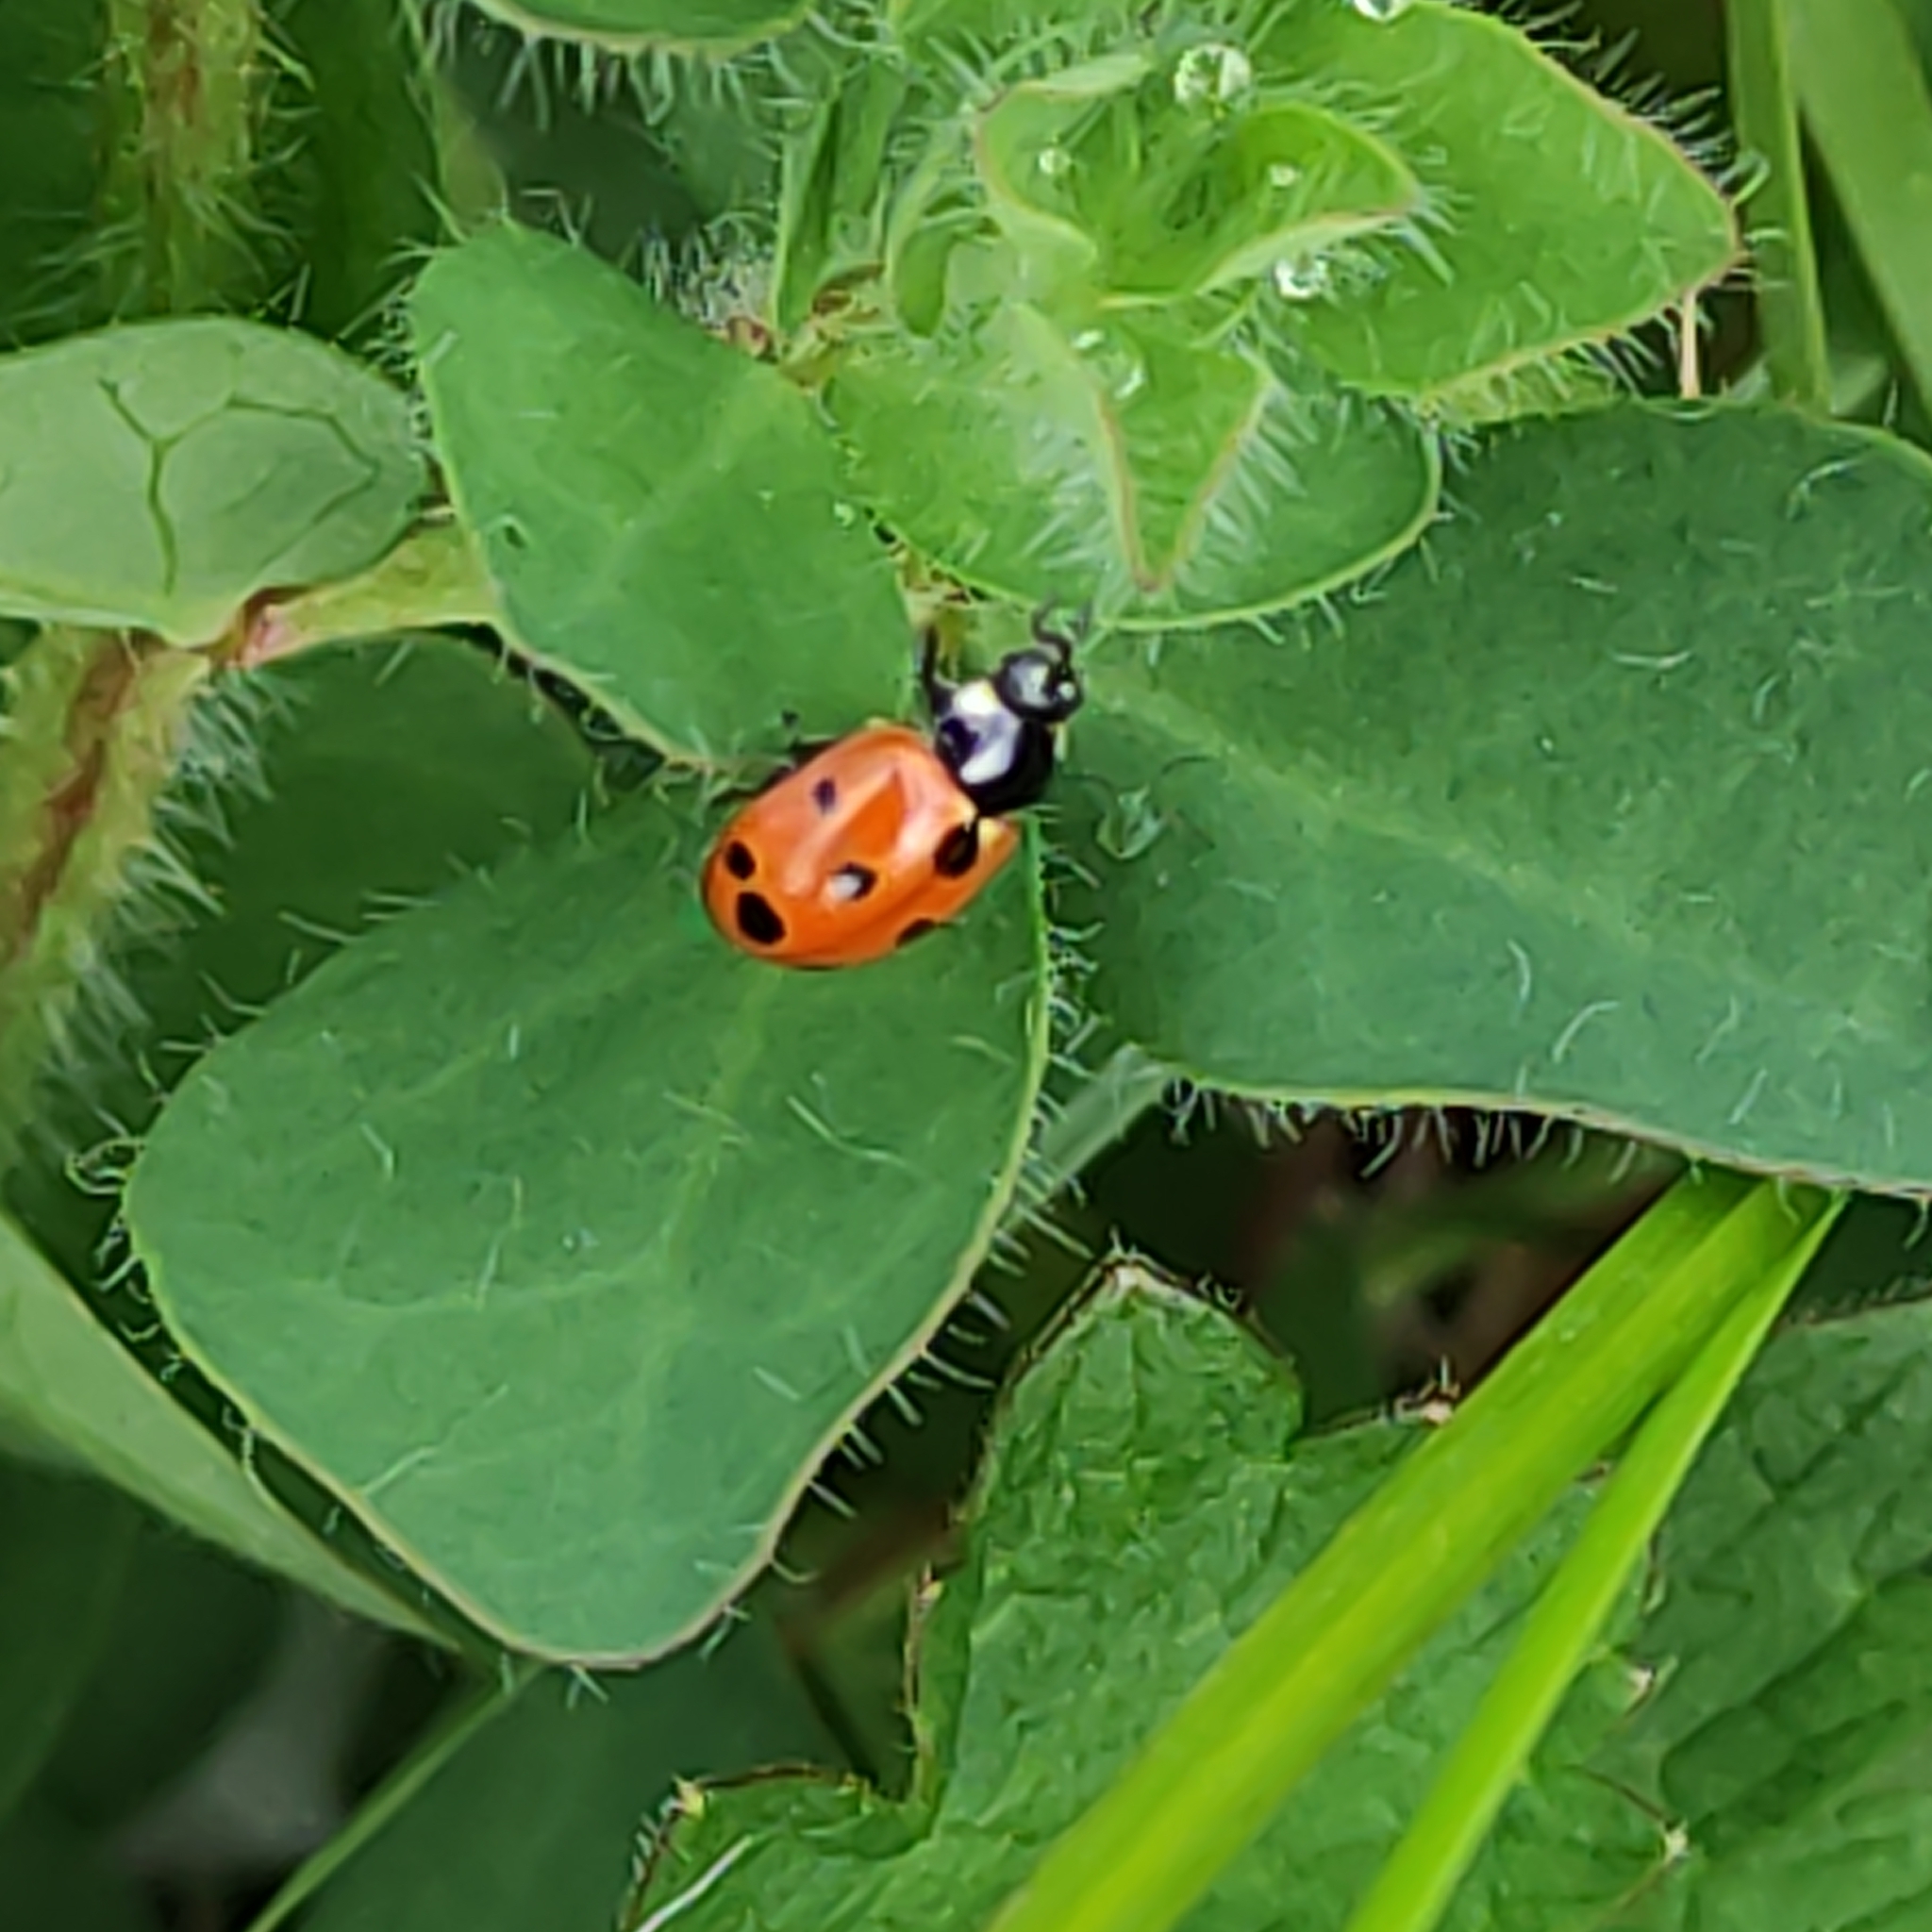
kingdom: Animalia
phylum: Arthropoda
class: Insecta
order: Coleoptera
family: Coccinellidae
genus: Coccinella
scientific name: Coccinella undecimpunctata
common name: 11-spot ladybird
